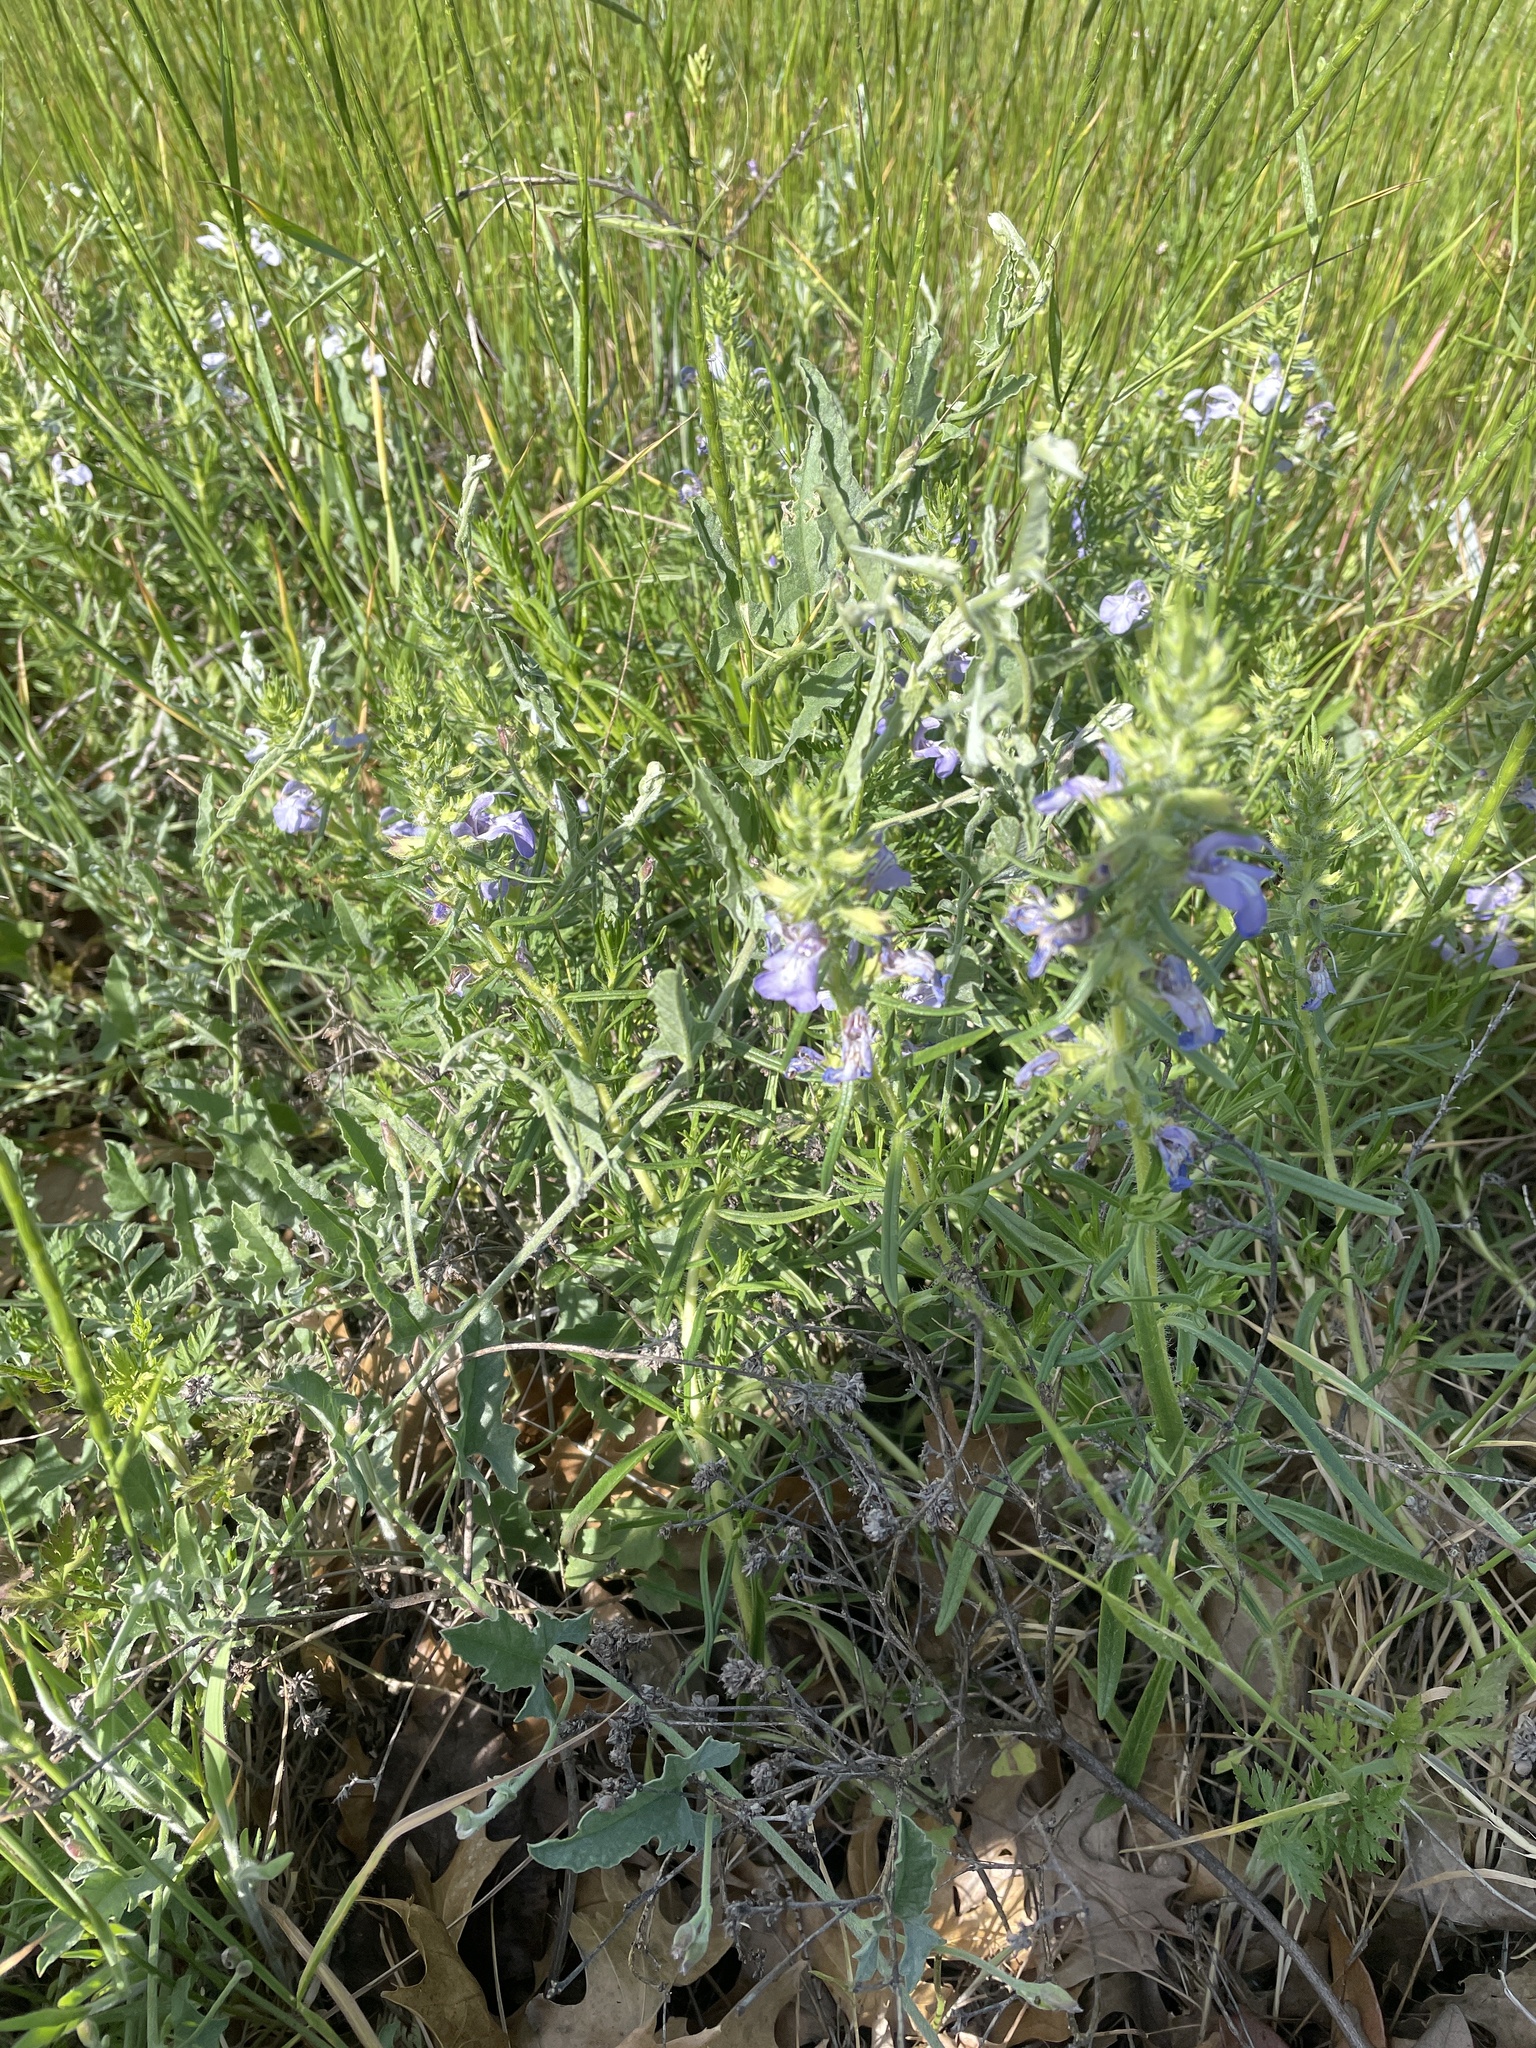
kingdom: Plantae
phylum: Tracheophyta
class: Magnoliopsida
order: Lamiales
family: Lamiaceae
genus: Salvia
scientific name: Salvia engelmannii
